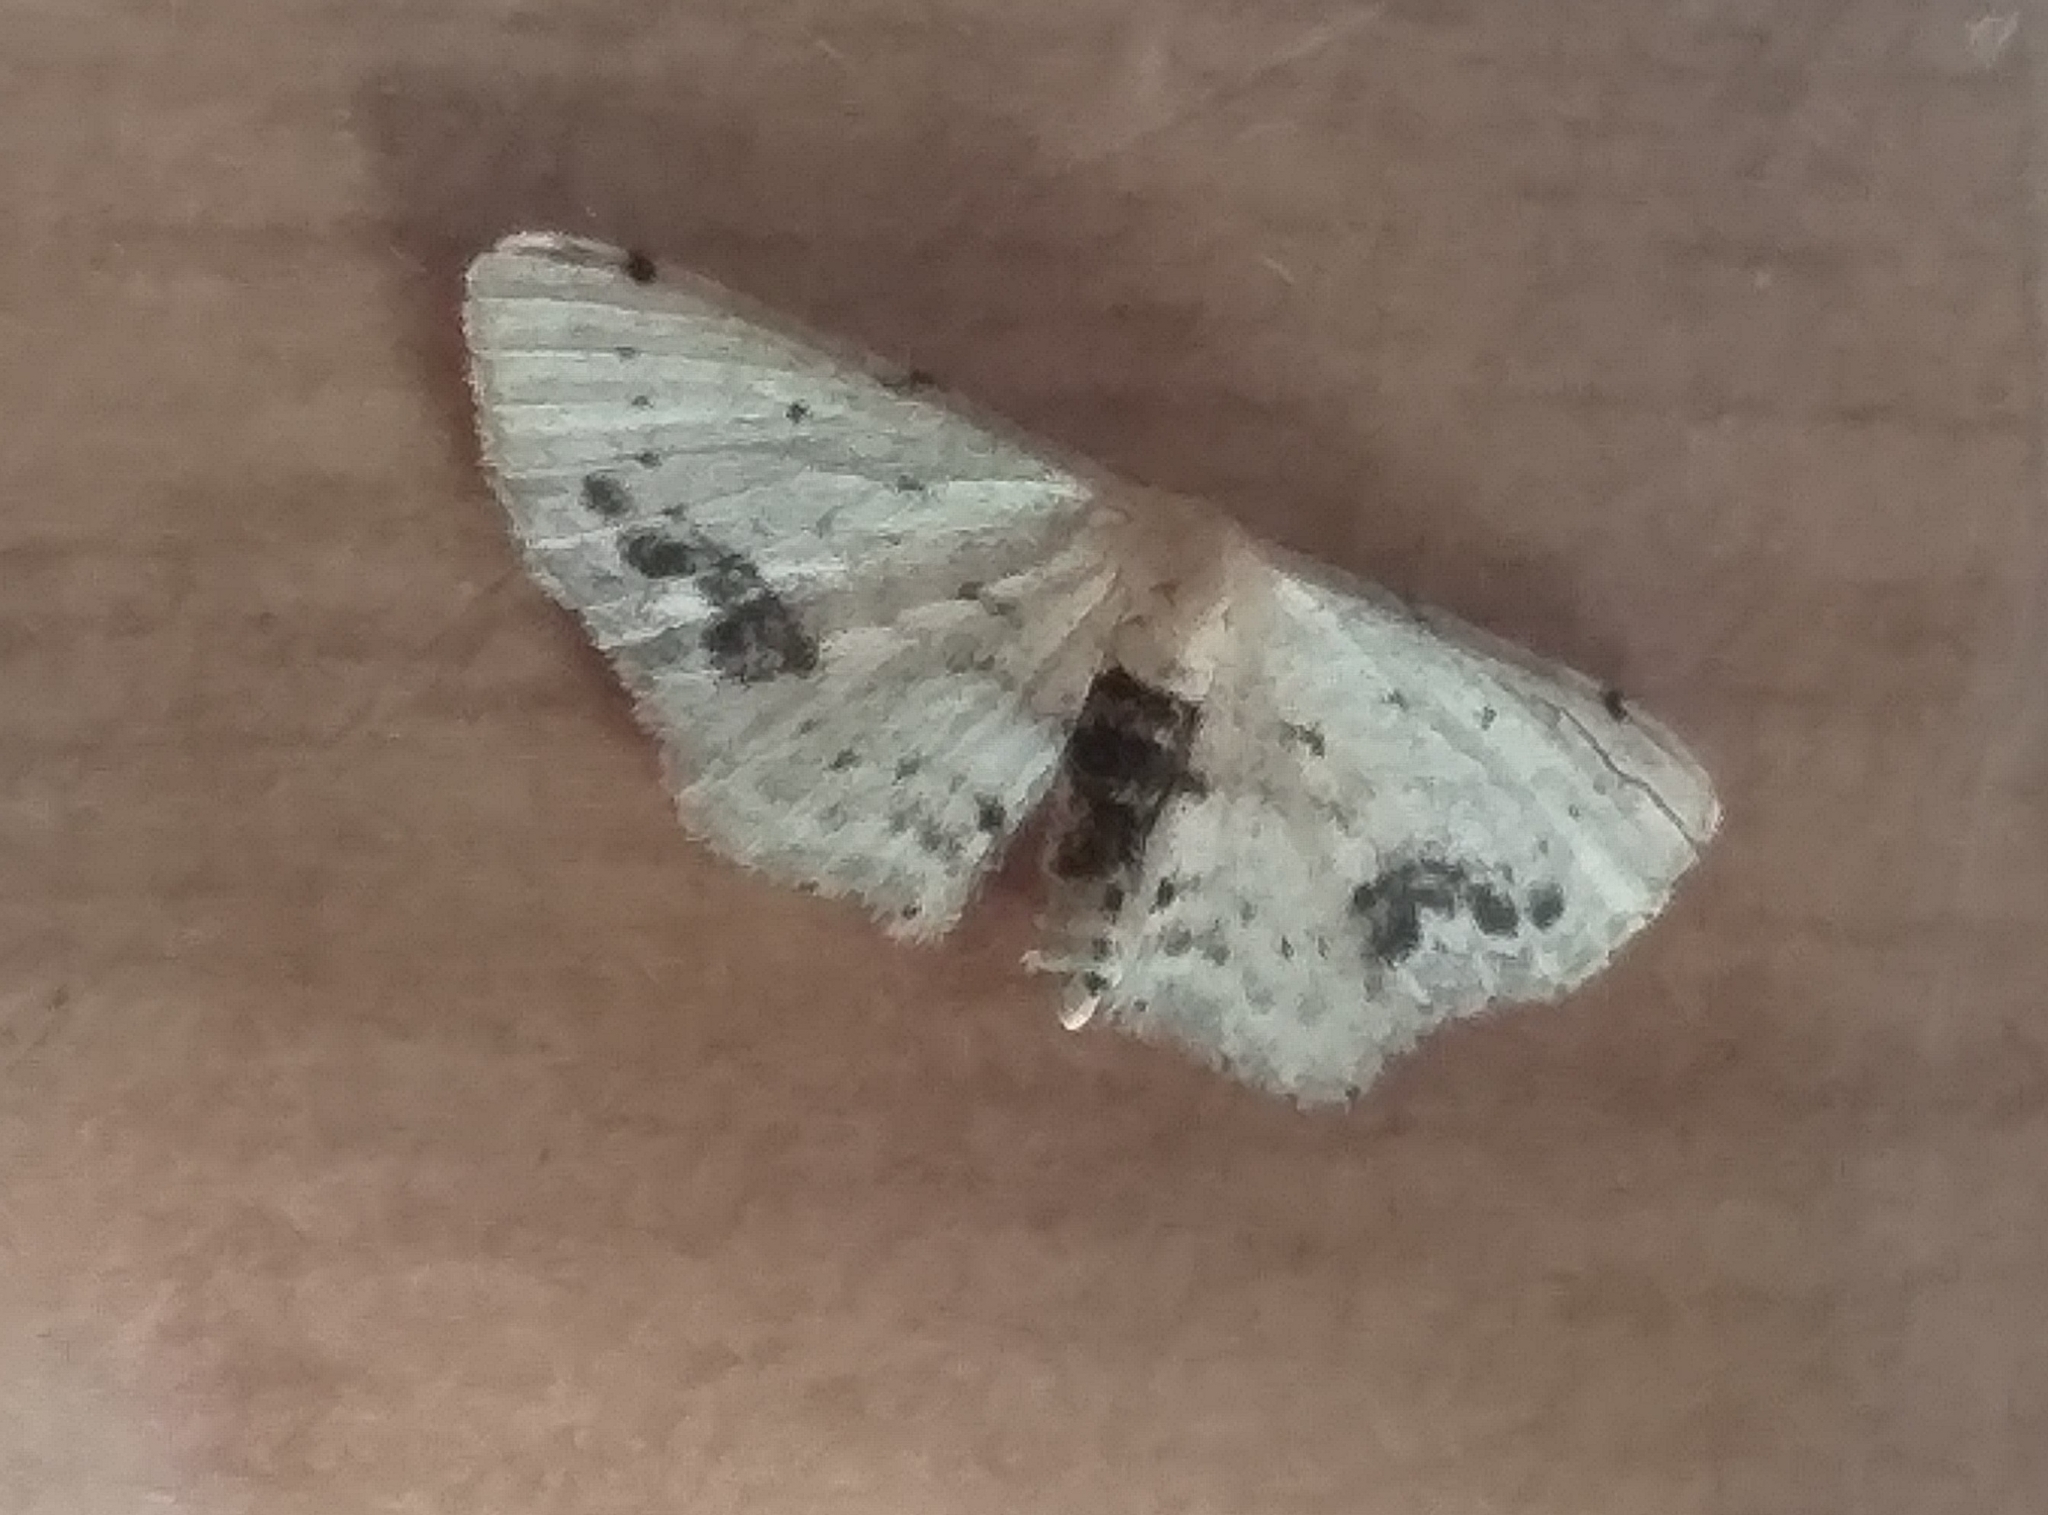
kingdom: Animalia
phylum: Arthropoda
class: Insecta
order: Lepidoptera
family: Geometridae
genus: Idaea
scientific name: Idaea dimidiata
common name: Single-dotted wave
